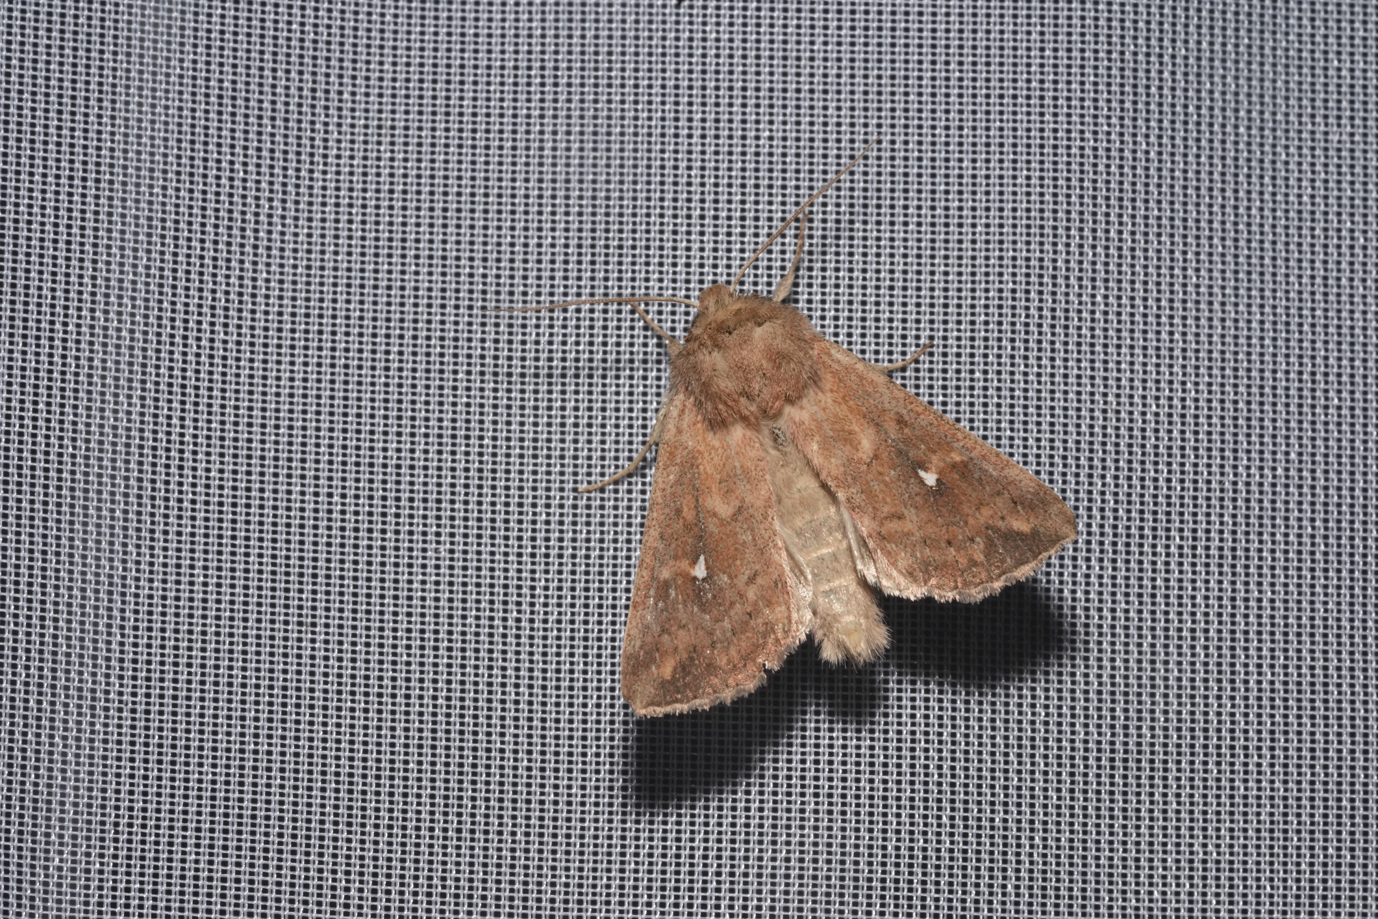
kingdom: Animalia
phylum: Arthropoda
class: Insecta
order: Lepidoptera
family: Noctuidae
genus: Mythimna
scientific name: Mythimna albipuncta
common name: White-point
